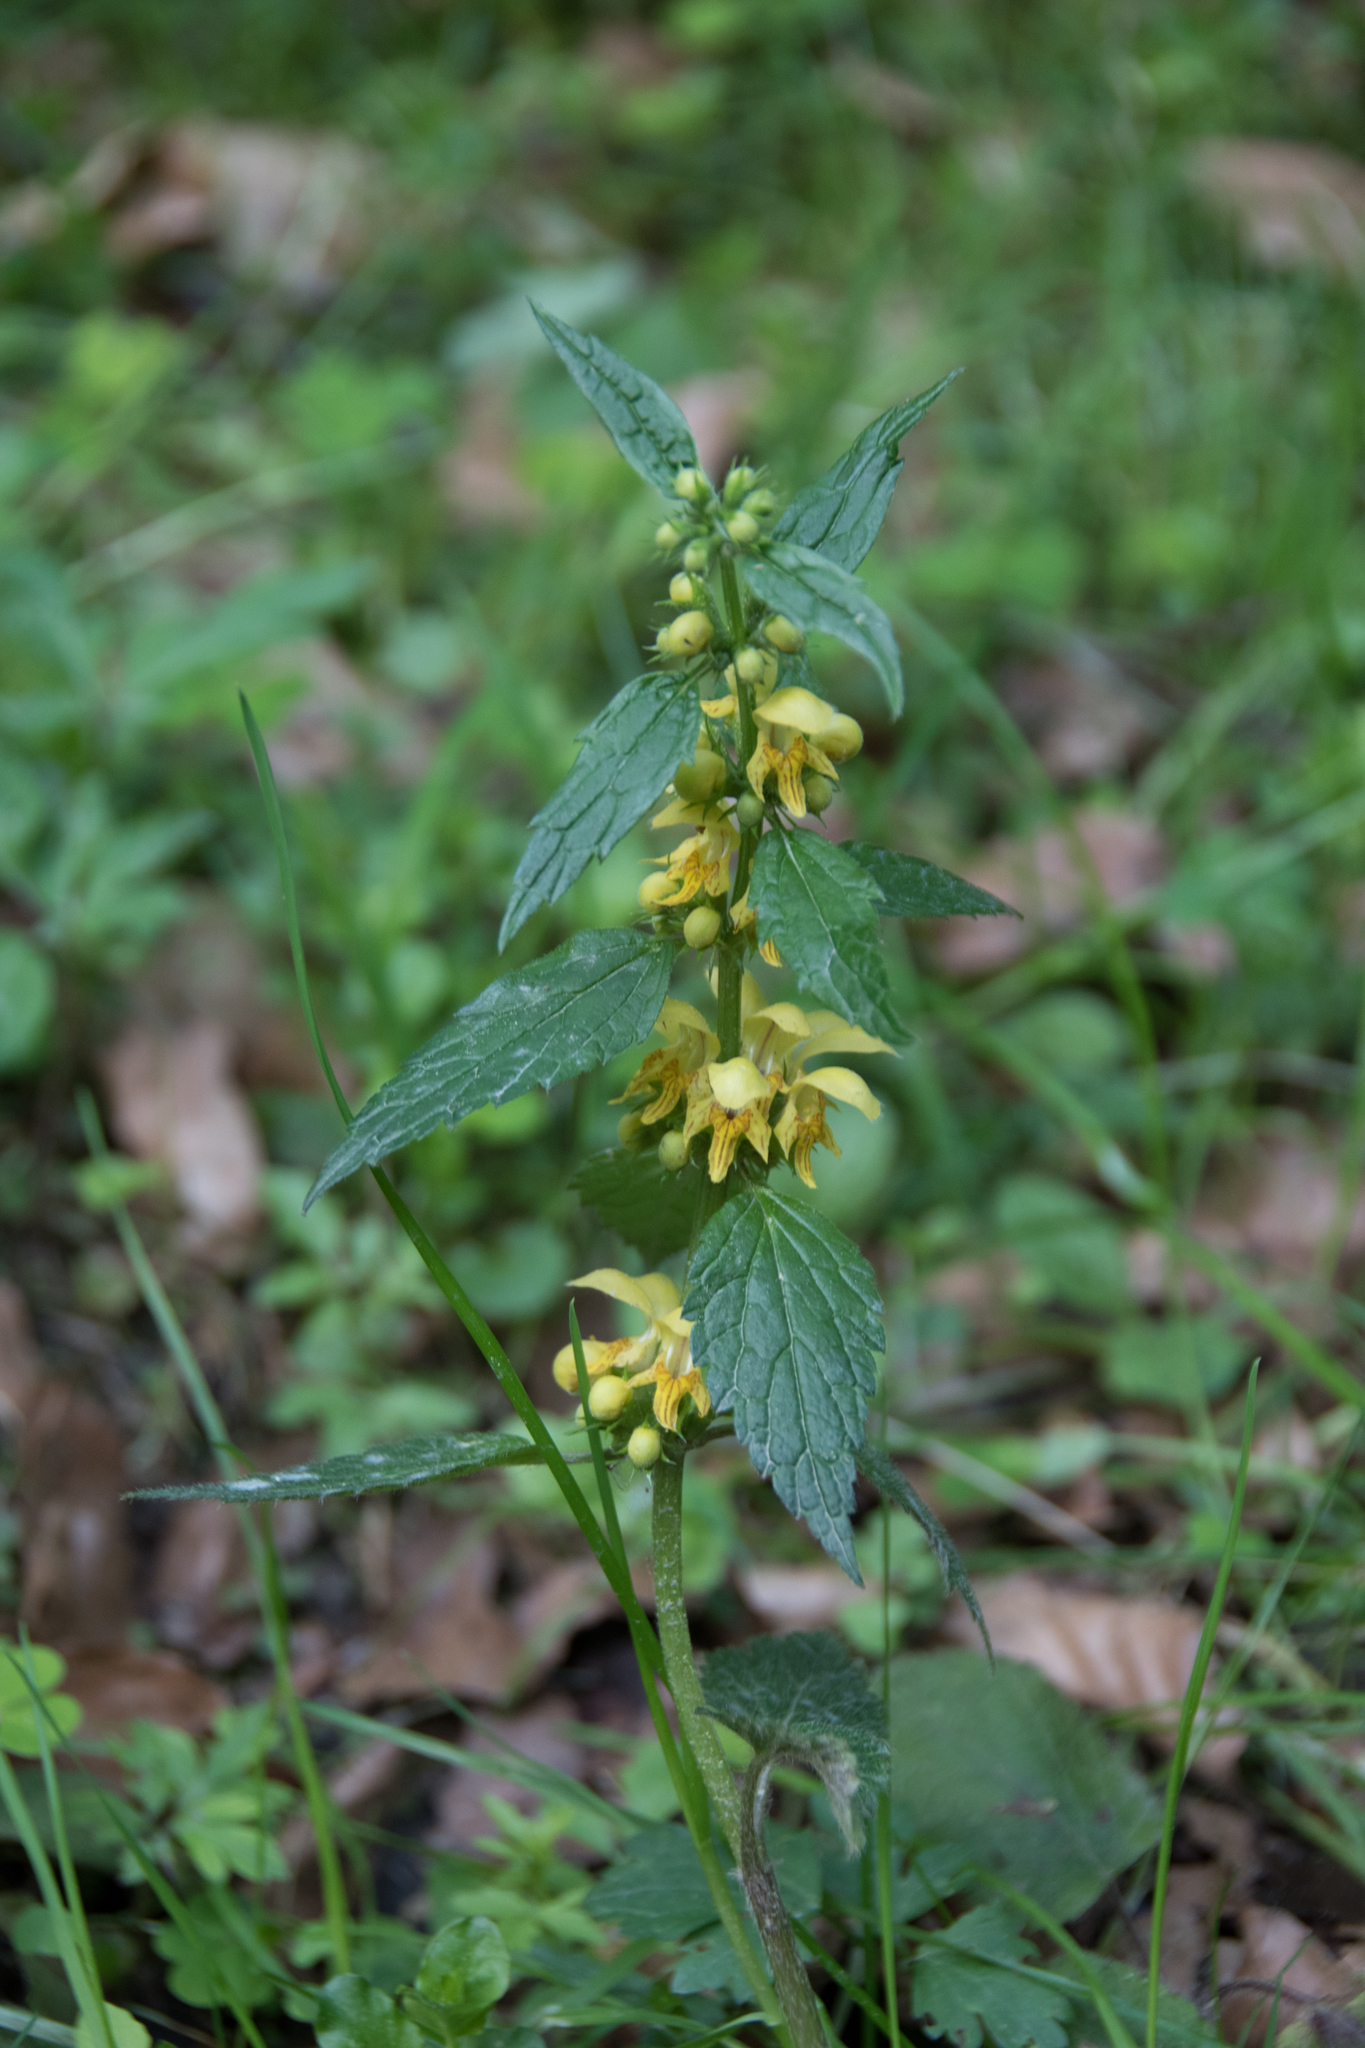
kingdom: Plantae
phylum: Tracheophyta
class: Magnoliopsida
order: Lamiales
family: Lamiaceae
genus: Lamium
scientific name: Lamium galeobdolon
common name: Yellow archangel
